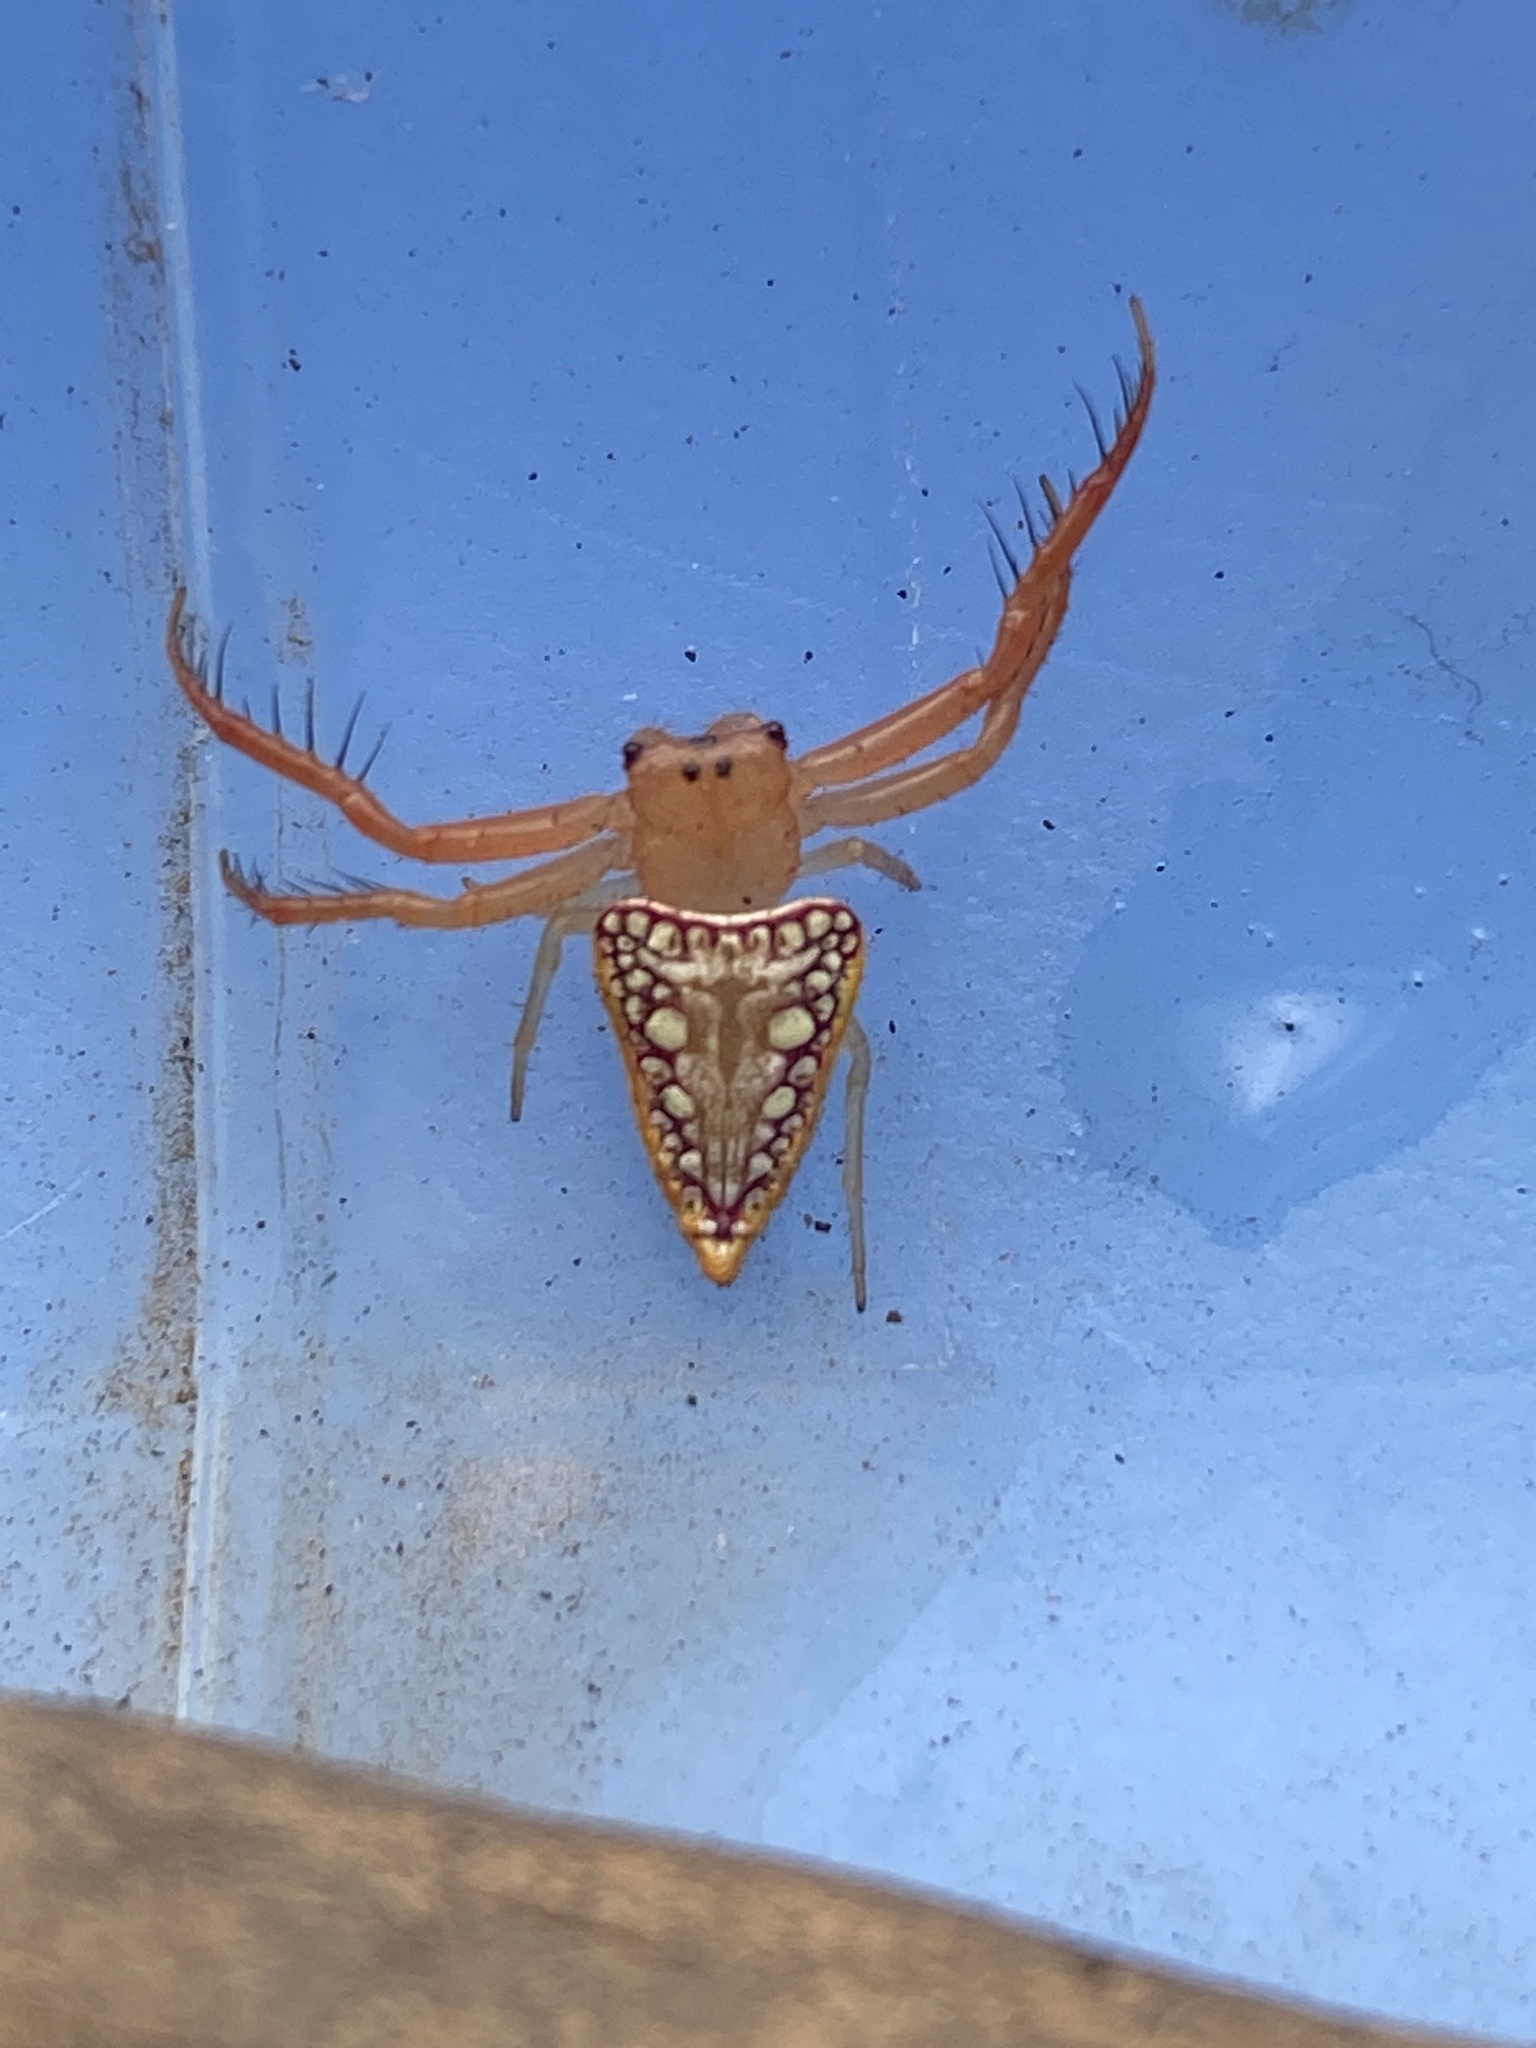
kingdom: Animalia
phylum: Arthropoda
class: Arachnida
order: Araneae
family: Arkyidae
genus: Arkys
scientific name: Arkys walckenaeri
